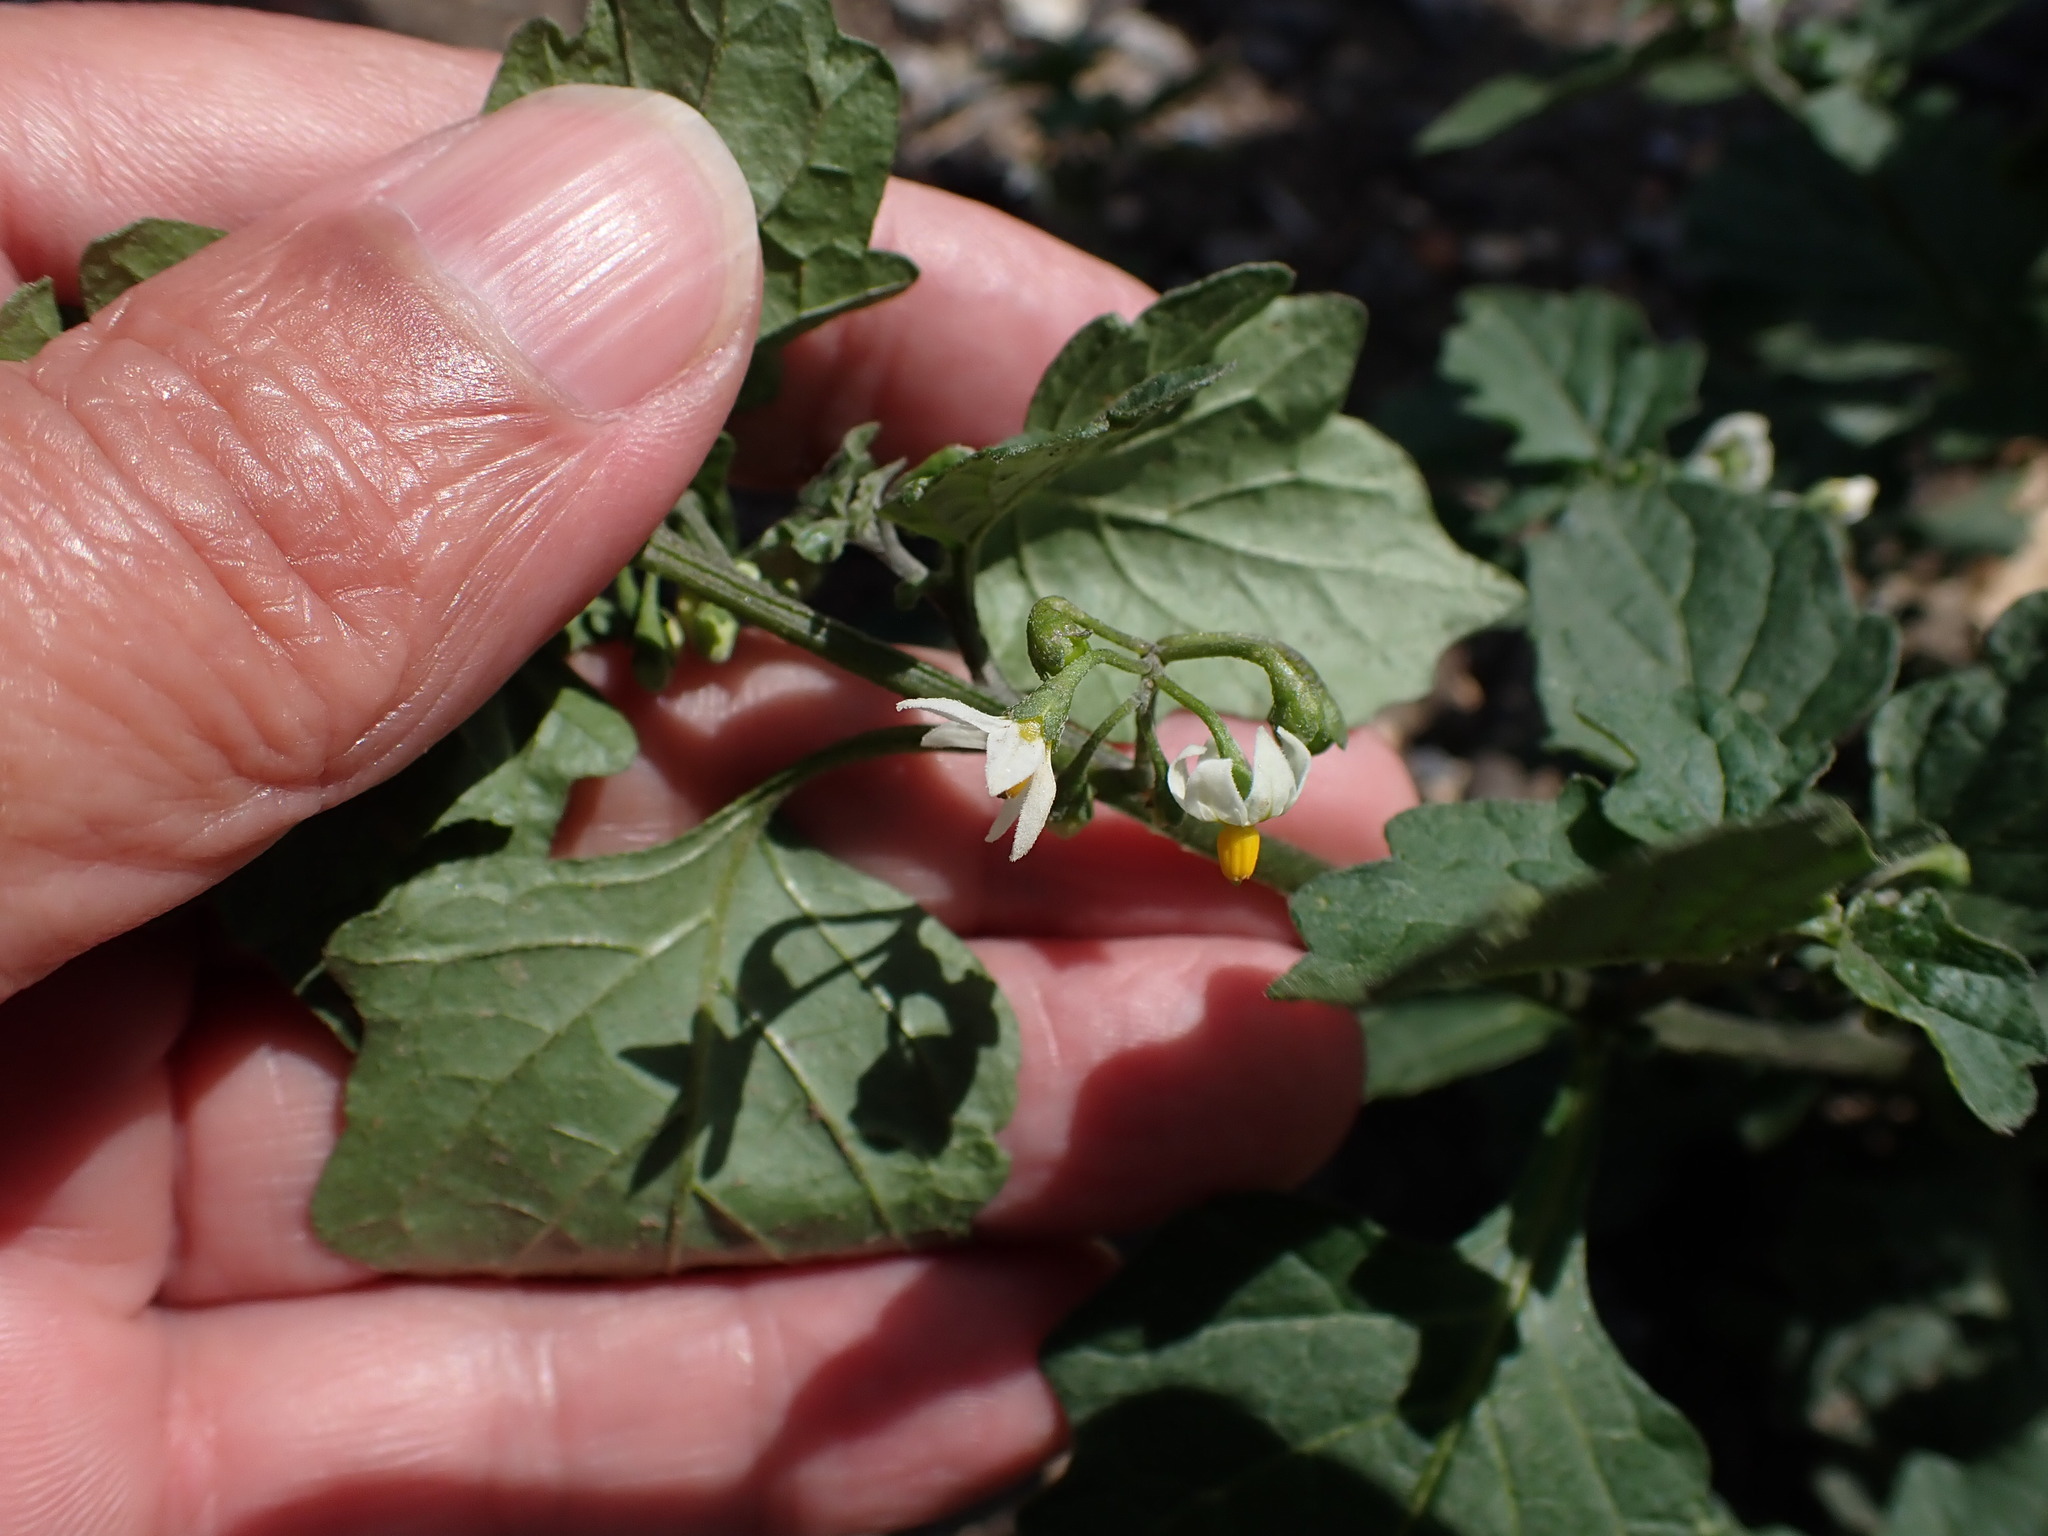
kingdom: Plantae
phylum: Tracheophyta
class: Magnoliopsida
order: Solanales
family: Solanaceae
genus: Solanum
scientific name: Solanum nigrum
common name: Black nightshade
